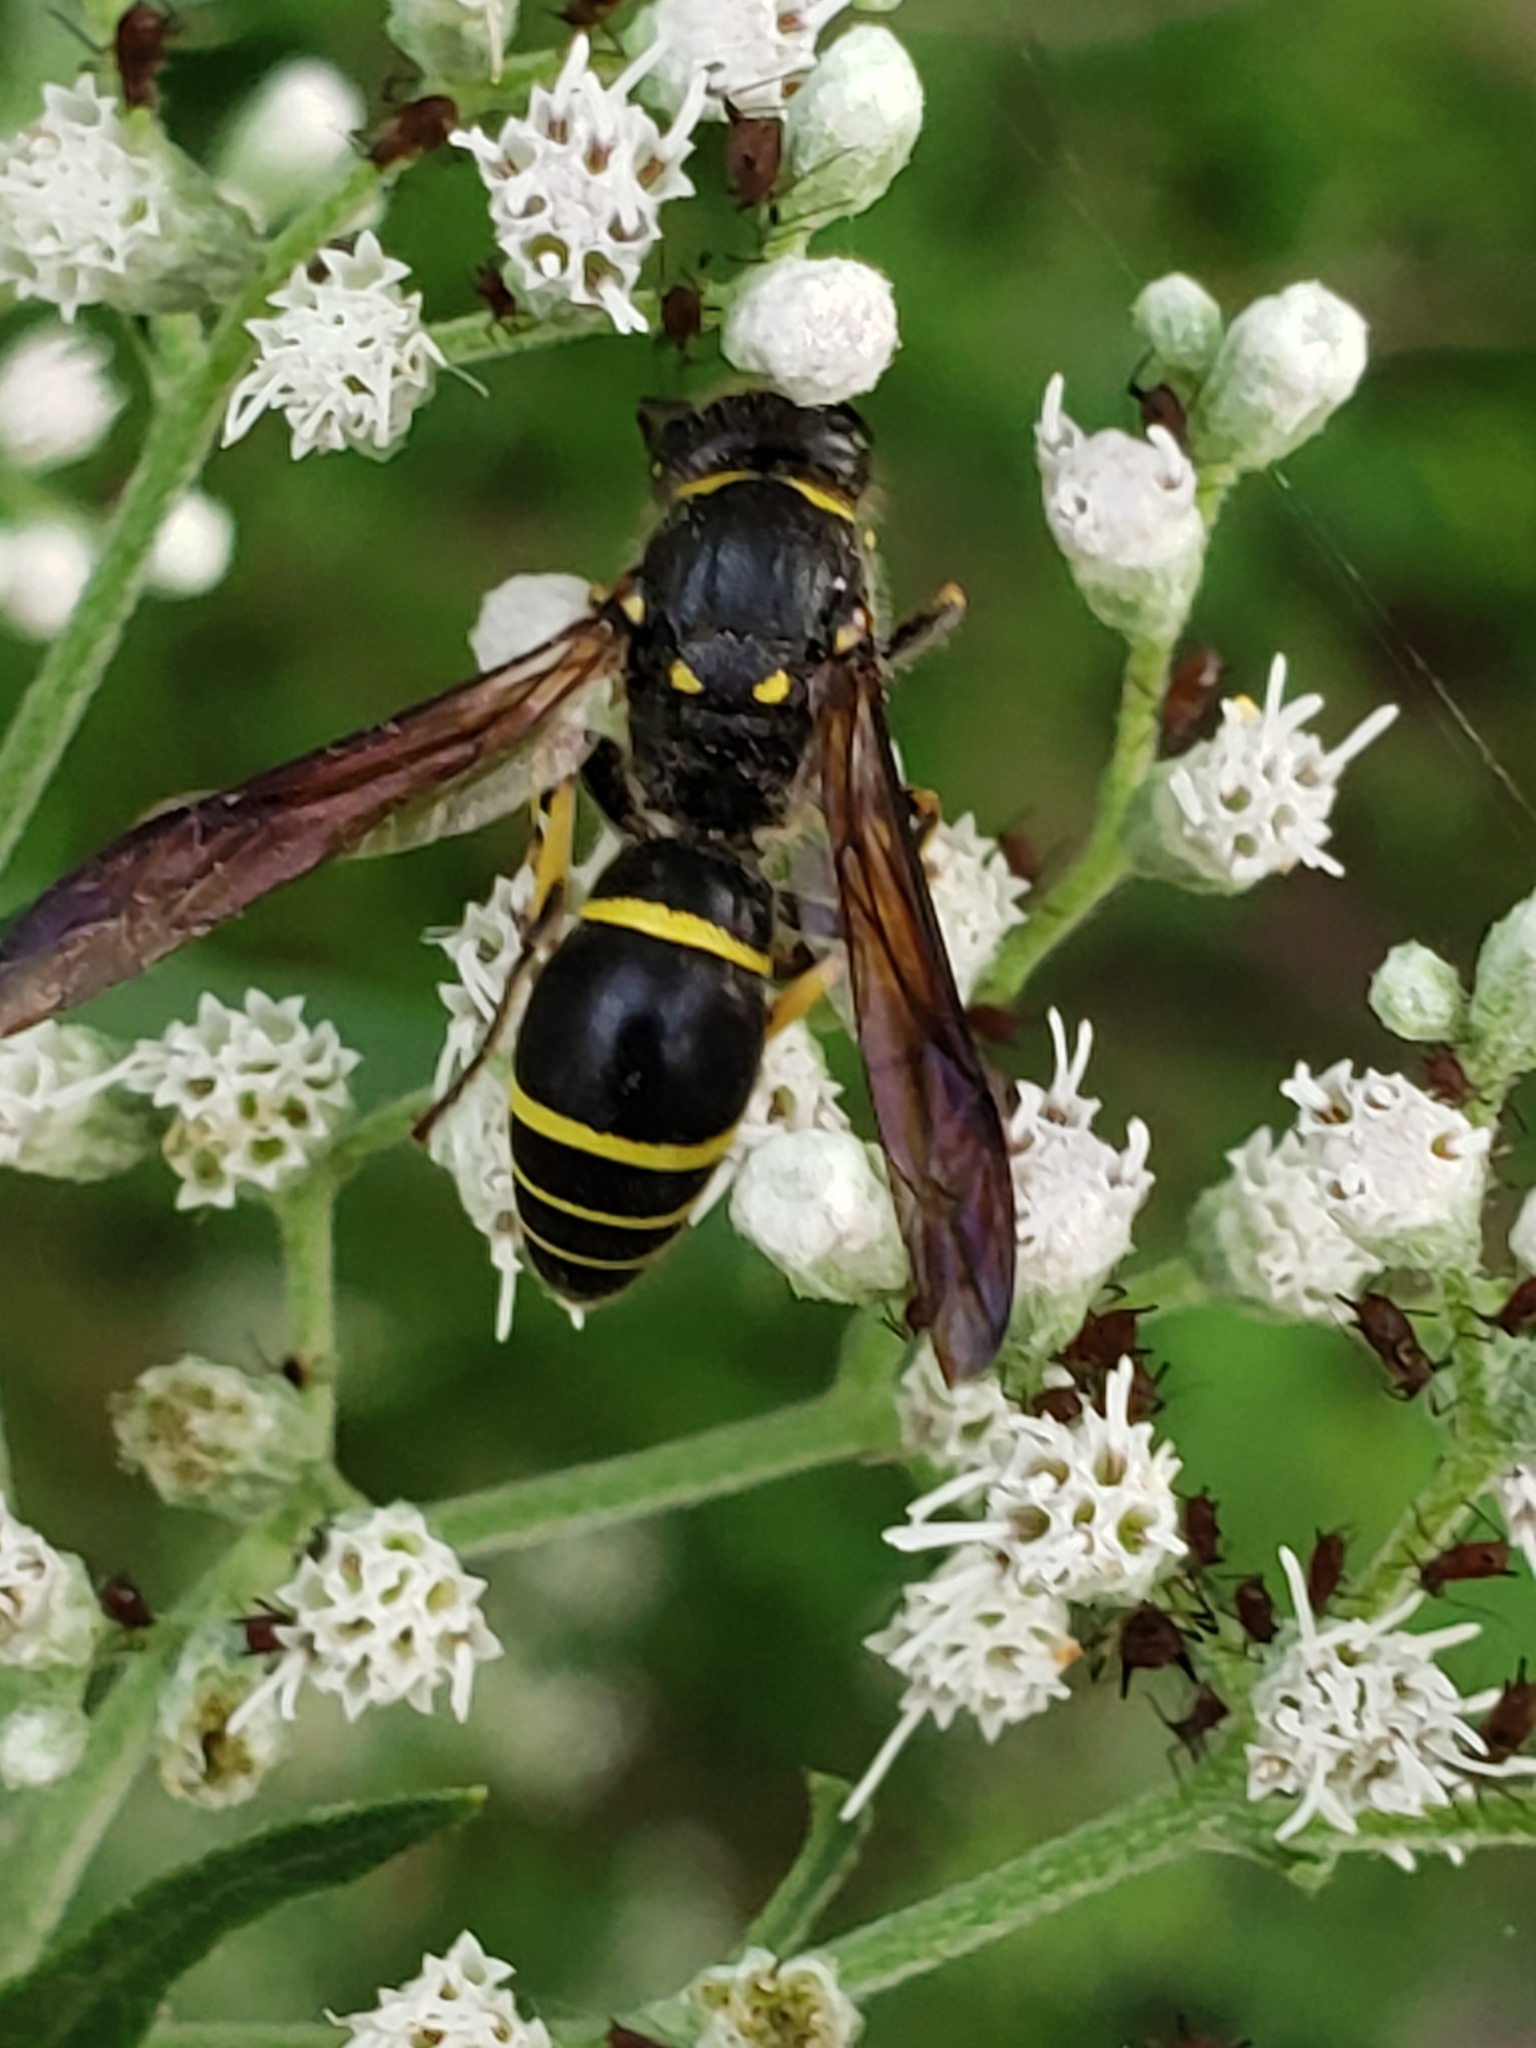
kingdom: Animalia
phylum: Arthropoda
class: Insecta
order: Hymenoptera
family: Vespidae
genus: Ancistrocerus
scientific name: Ancistrocerus
